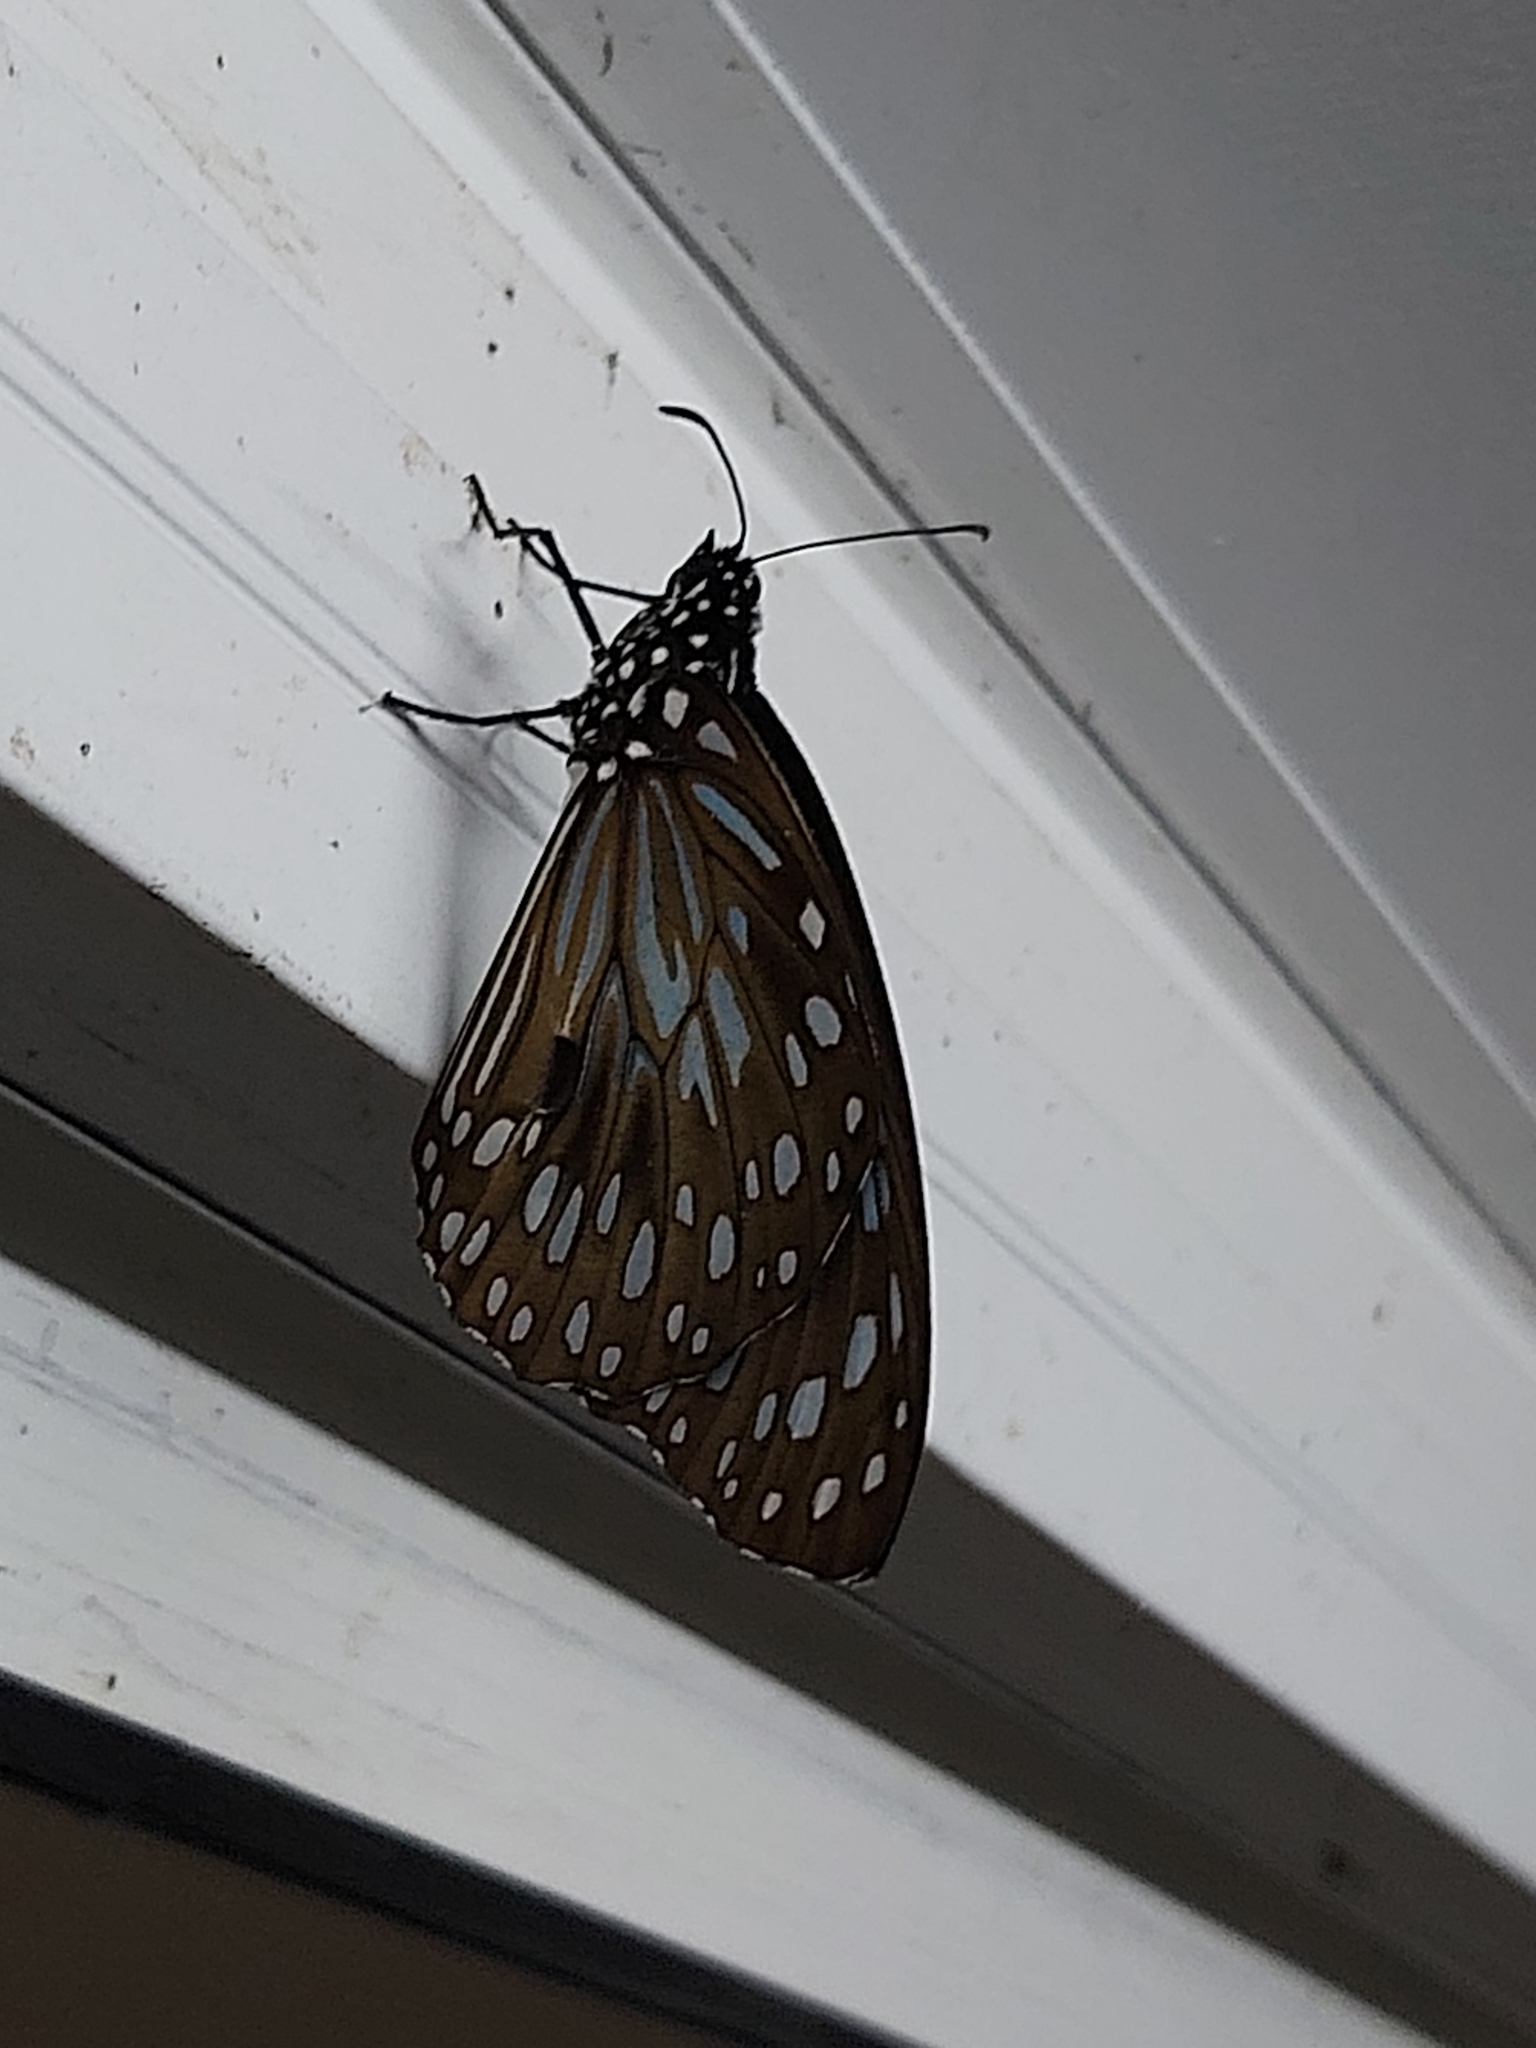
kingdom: Animalia
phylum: Arthropoda
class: Insecta
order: Lepidoptera
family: Nymphalidae
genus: Tirumala
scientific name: Tirumala hamata
